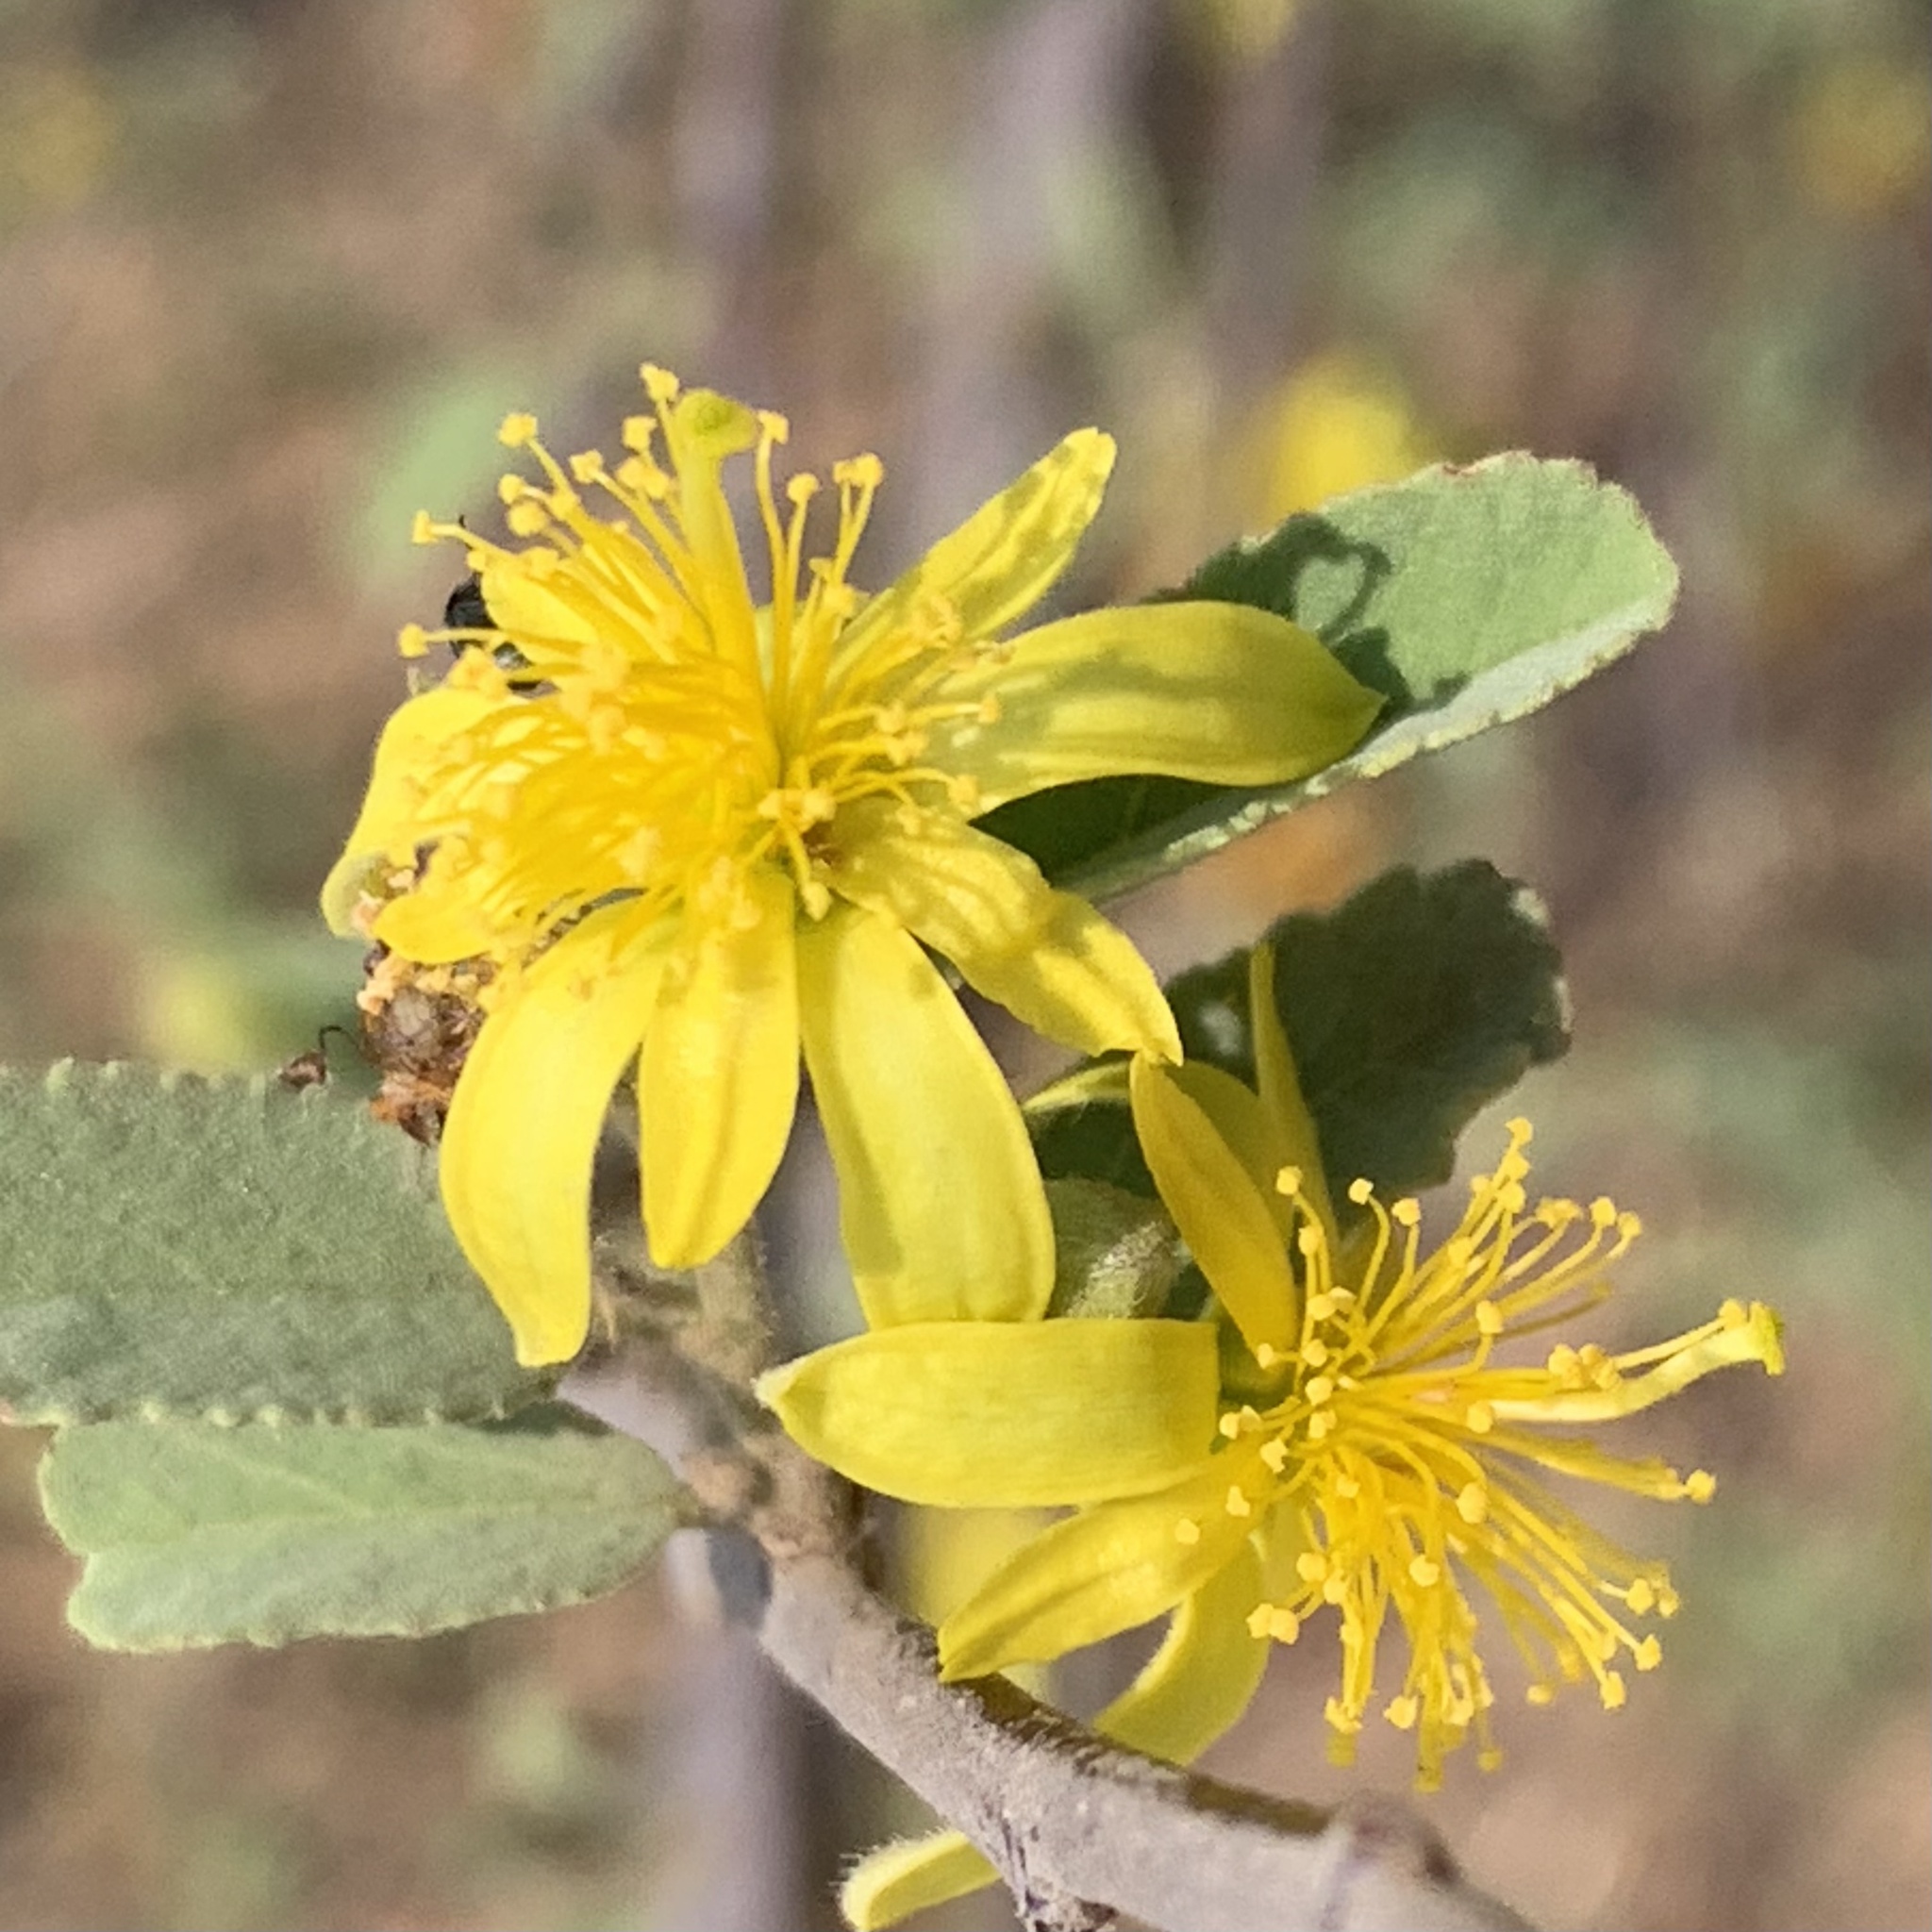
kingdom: Plantae
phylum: Tracheophyta
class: Magnoliopsida
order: Malvales
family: Malvaceae
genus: Grewia
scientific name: Grewia flava
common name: Brandy bush
